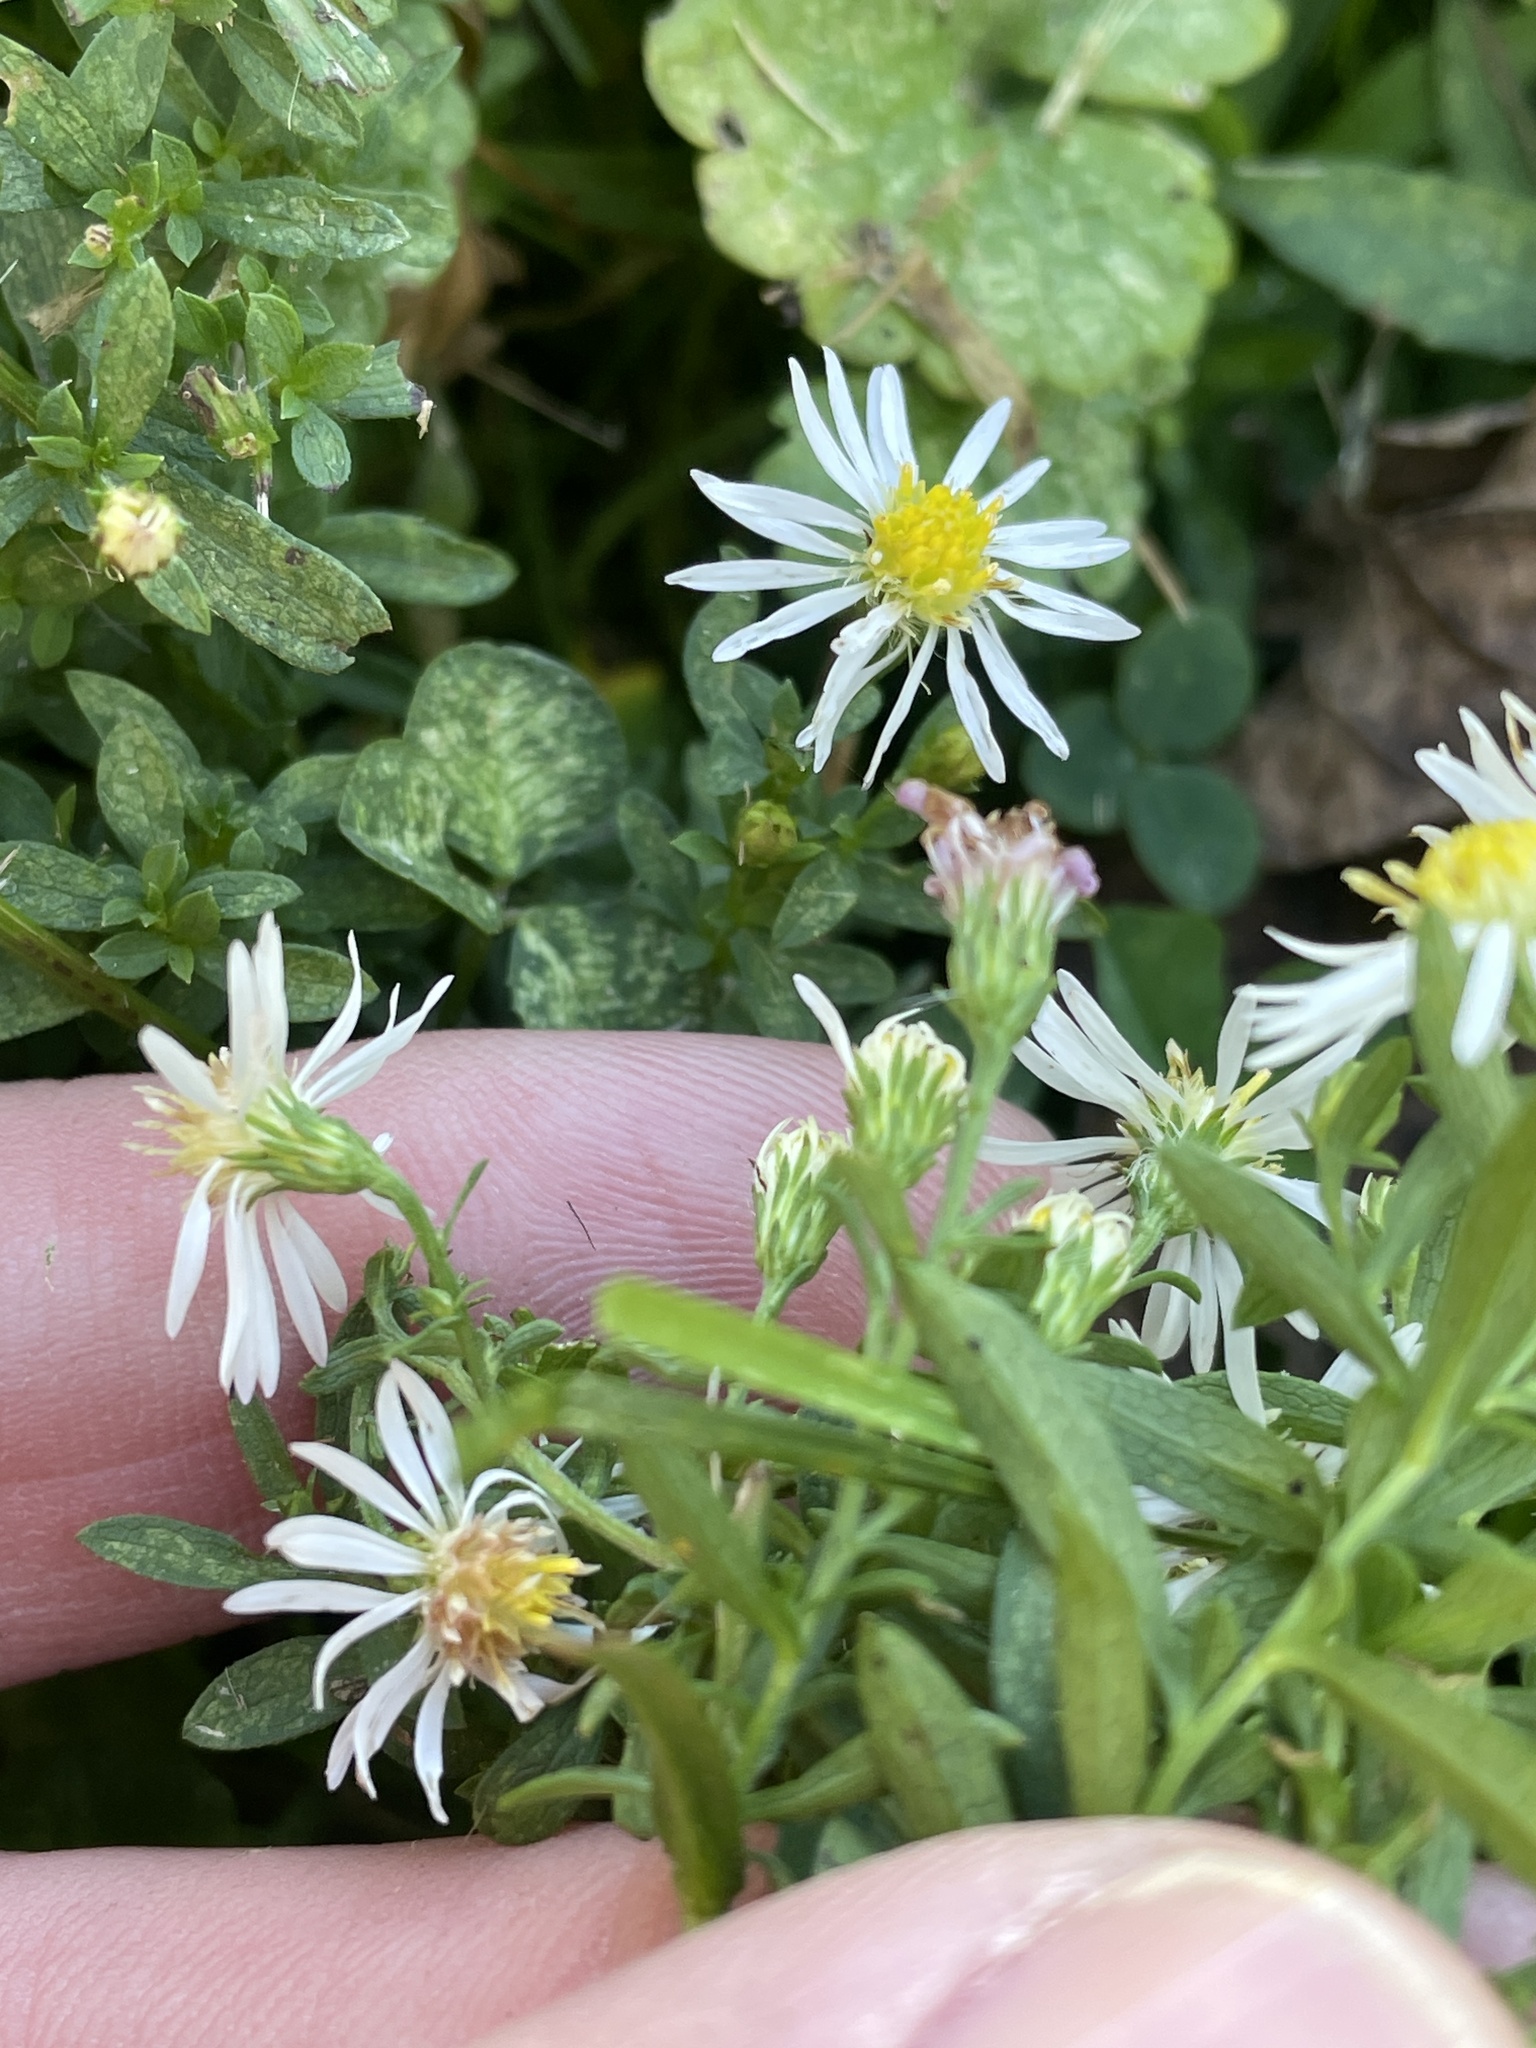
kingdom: Plantae
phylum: Tracheophyta
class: Magnoliopsida
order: Asterales
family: Asteraceae
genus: Symphyotrichum
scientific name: Symphyotrichum racemosum
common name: Small white aster
